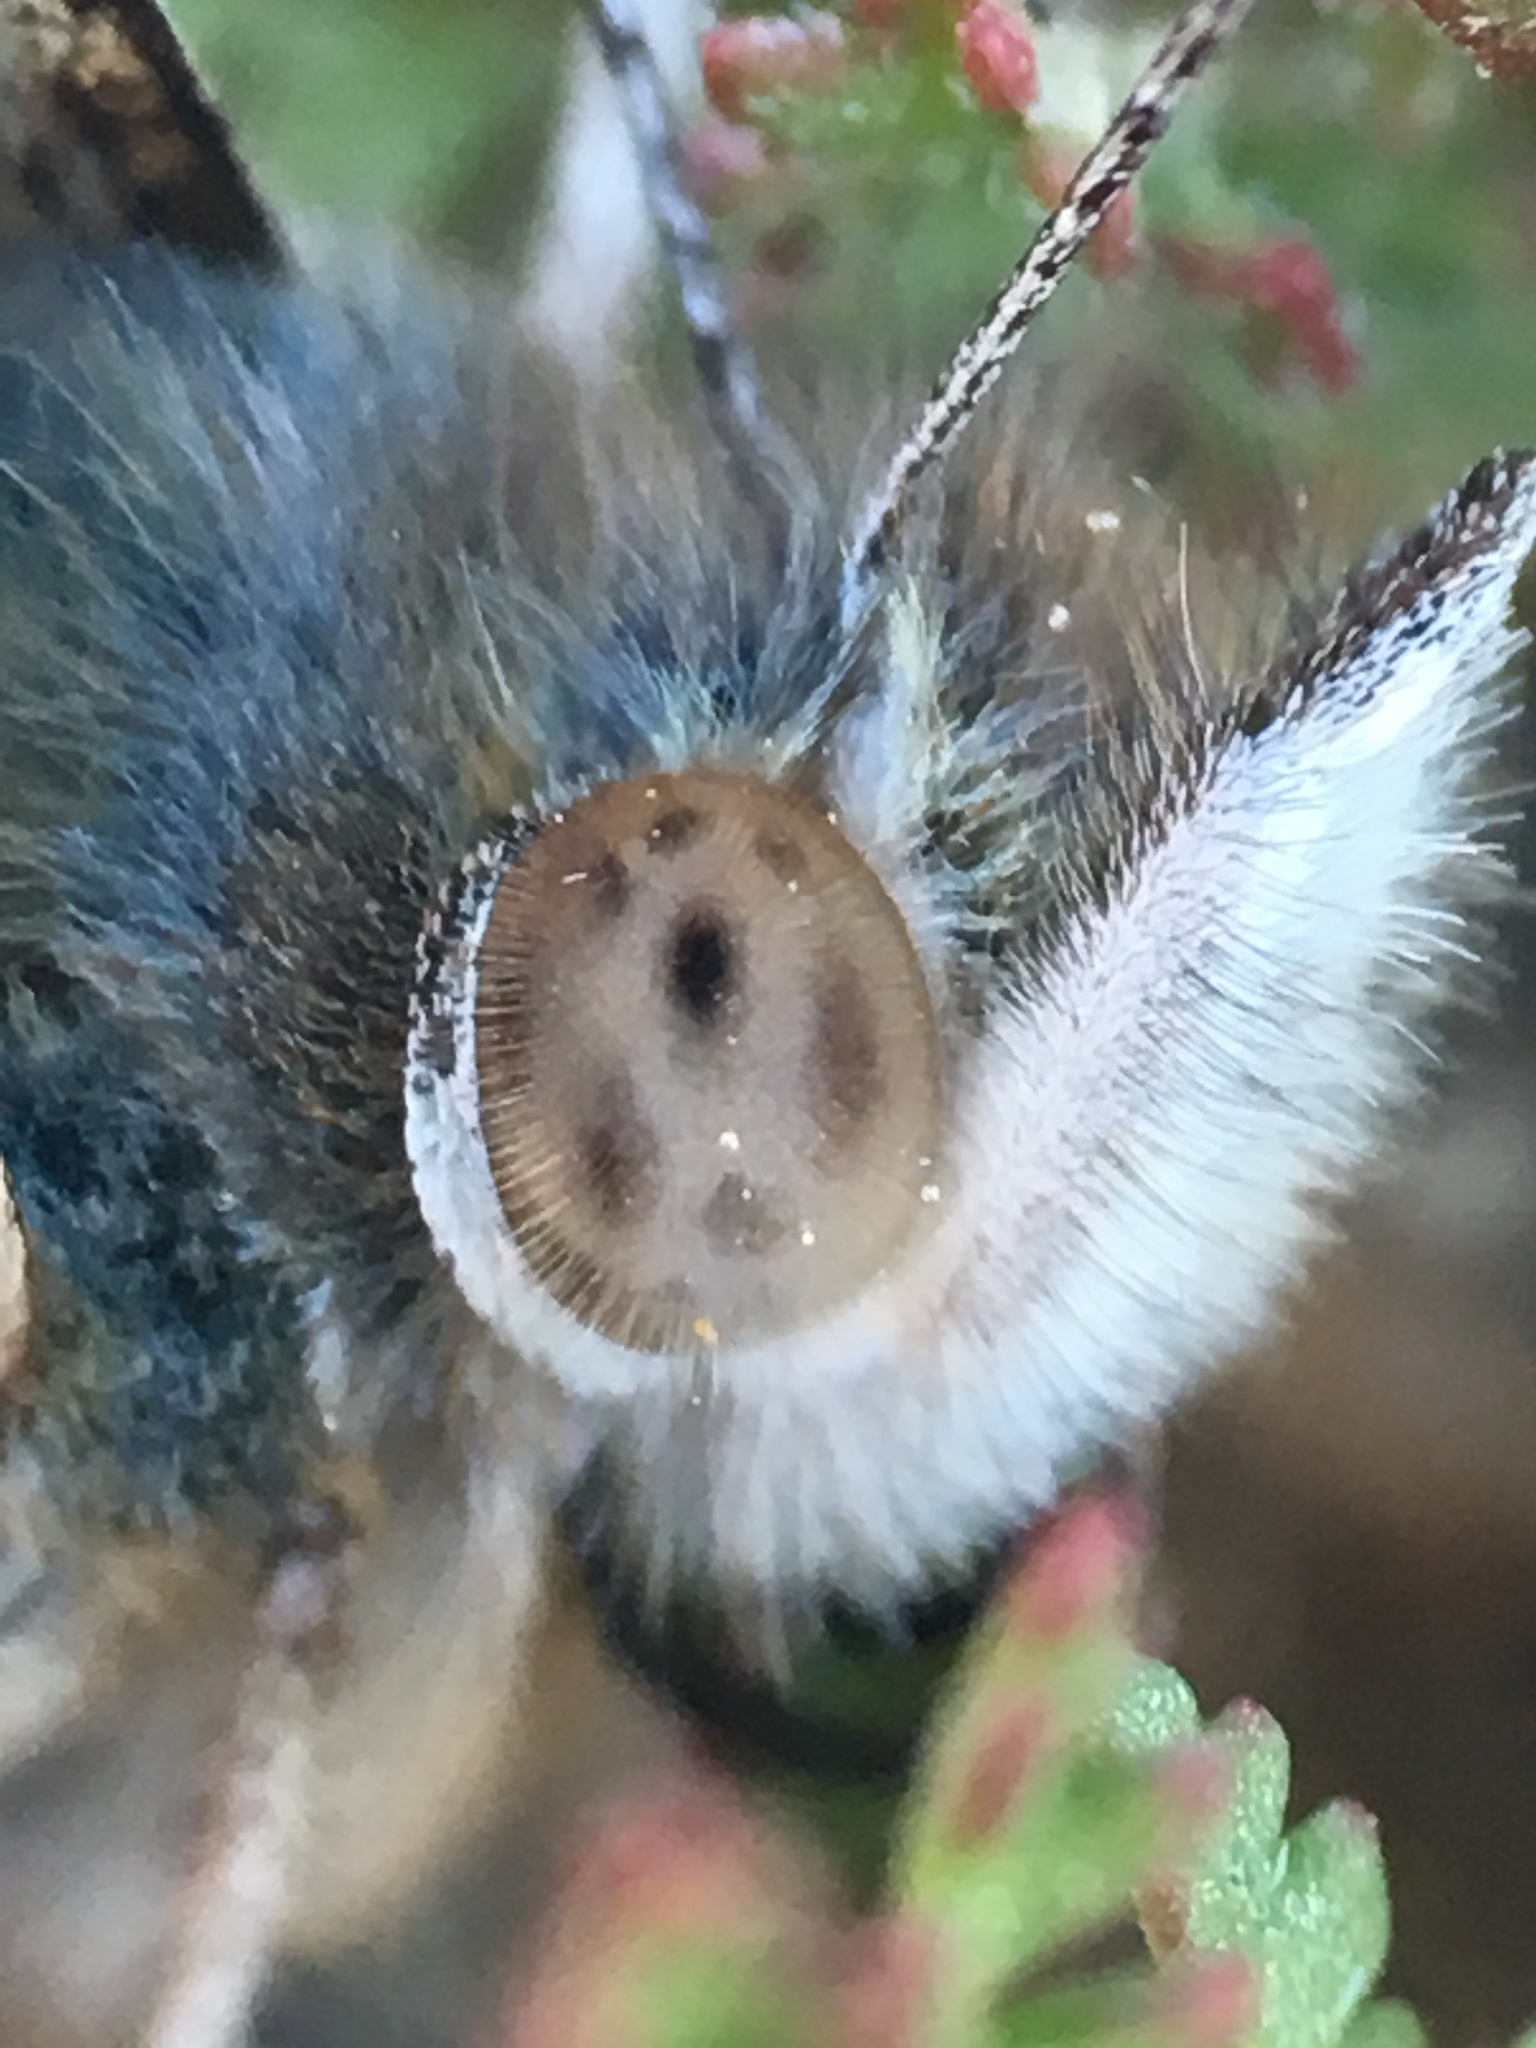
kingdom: Animalia
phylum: Arthropoda
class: Insecta
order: Lepidoptera
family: Nymphalidae
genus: Vanessa
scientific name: Vanessa cardui
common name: Painted lady
